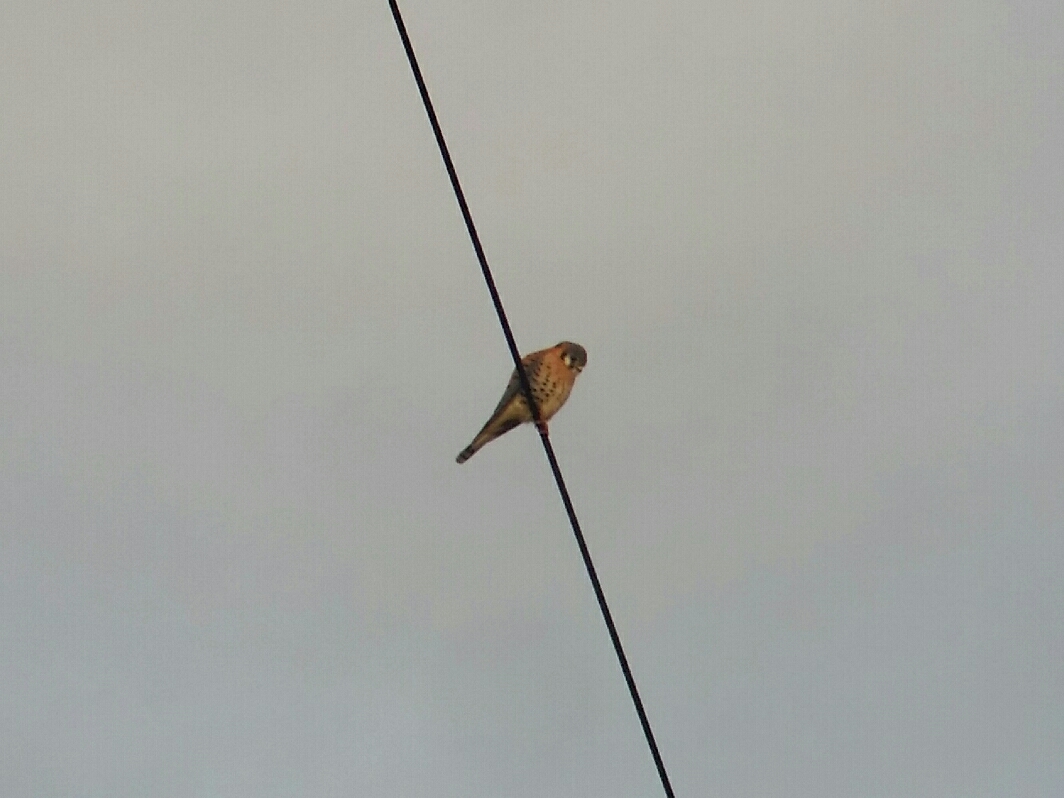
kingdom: Animalia
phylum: Chordata
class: Aves
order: Falconiformes
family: Falconidae
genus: Falco
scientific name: Falco sparverius
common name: American kestrel
